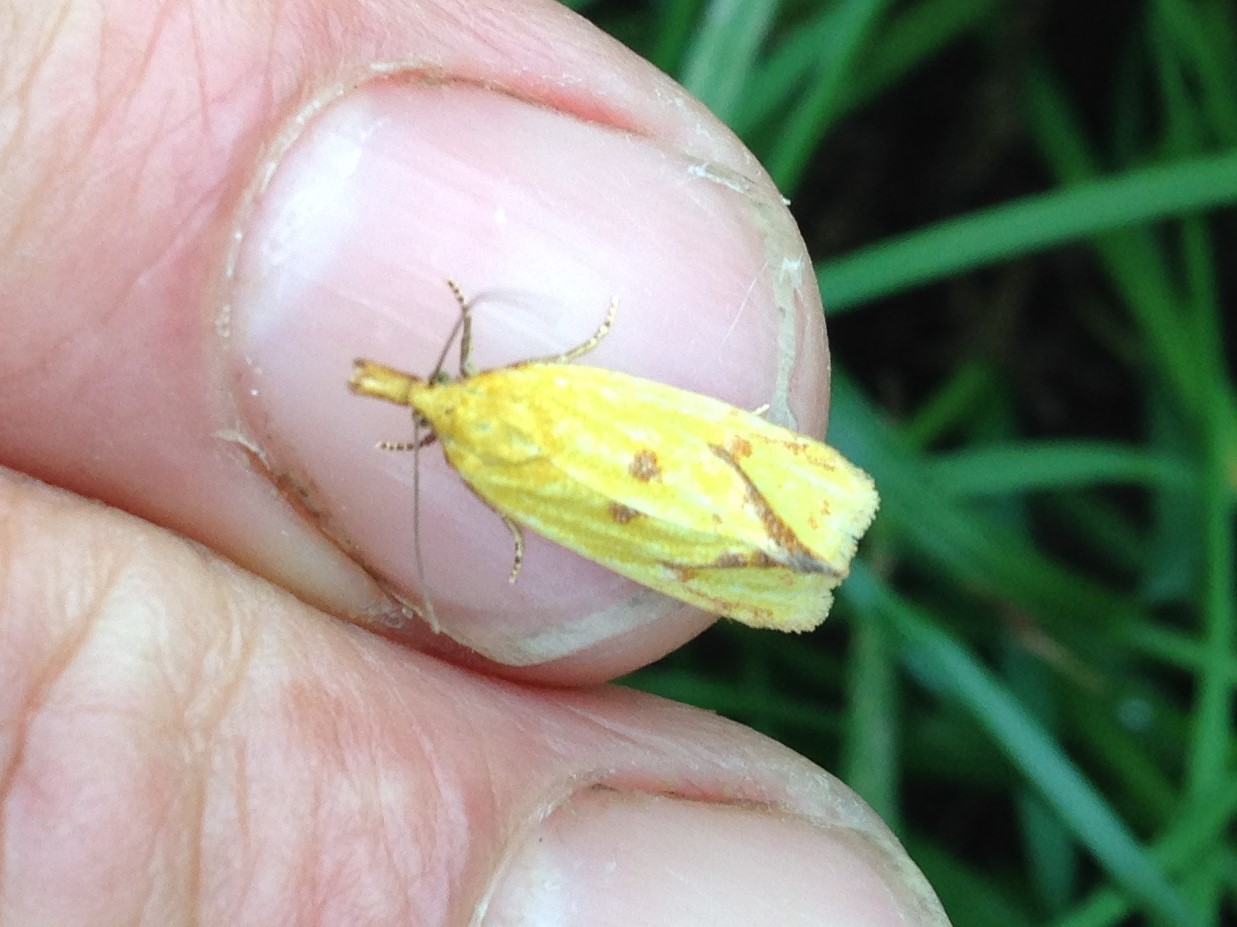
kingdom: Animalia
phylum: Arthropoda
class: Insecta
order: Lepidoptera
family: Tortricidae
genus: Agapeta
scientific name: Agapeta hamana
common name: Common yellow conch
